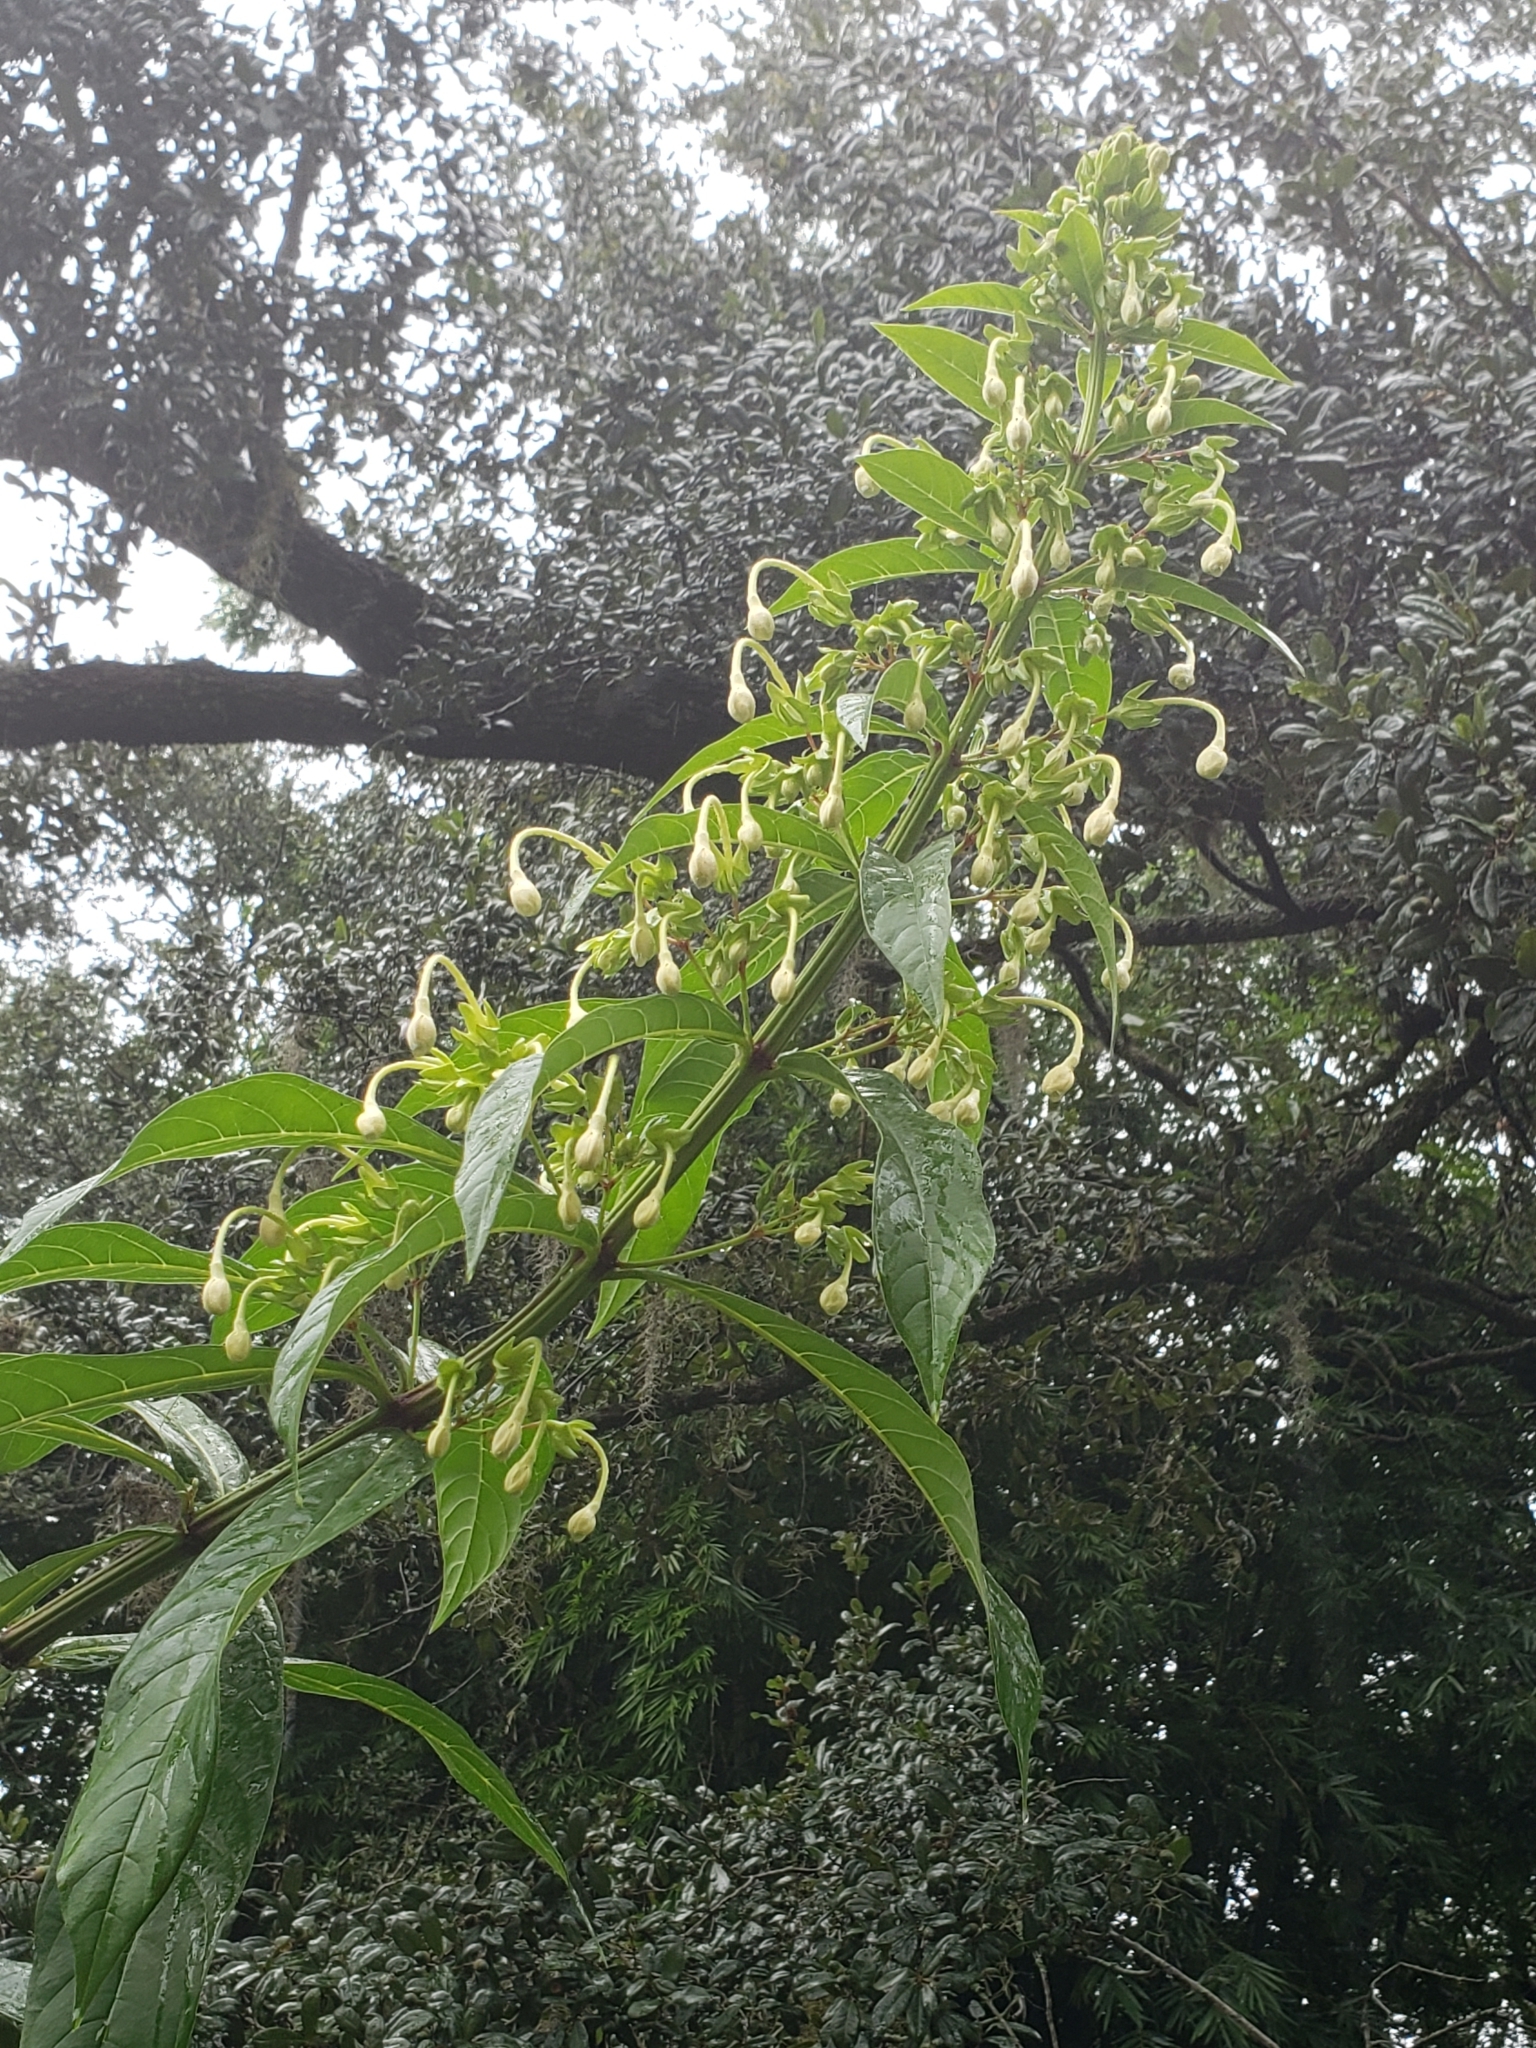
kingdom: Plantae
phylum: Tracheophyta
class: Magnoliopsida
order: Lamiales
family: Lamiaceae
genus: Clerodendrum
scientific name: Clerodendrum indicum
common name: Turk's turbin
